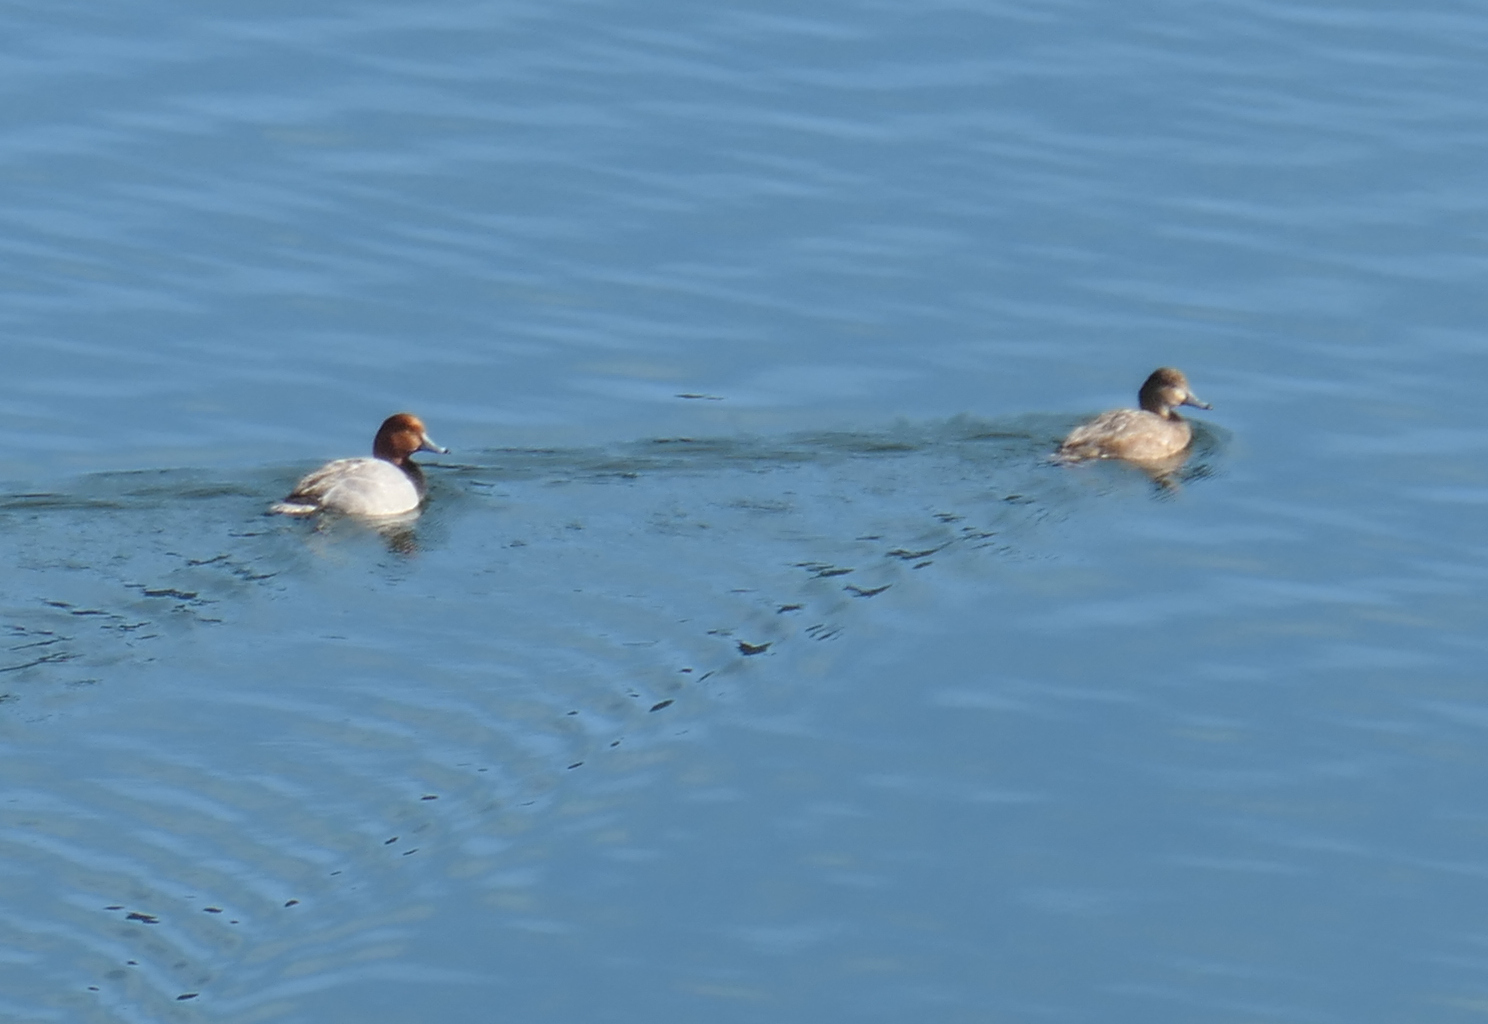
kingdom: Animalia
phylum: Chordata
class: Aves
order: Anseriformes
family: Anatidae
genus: Aythya
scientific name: Aythya americana
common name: Redhead
